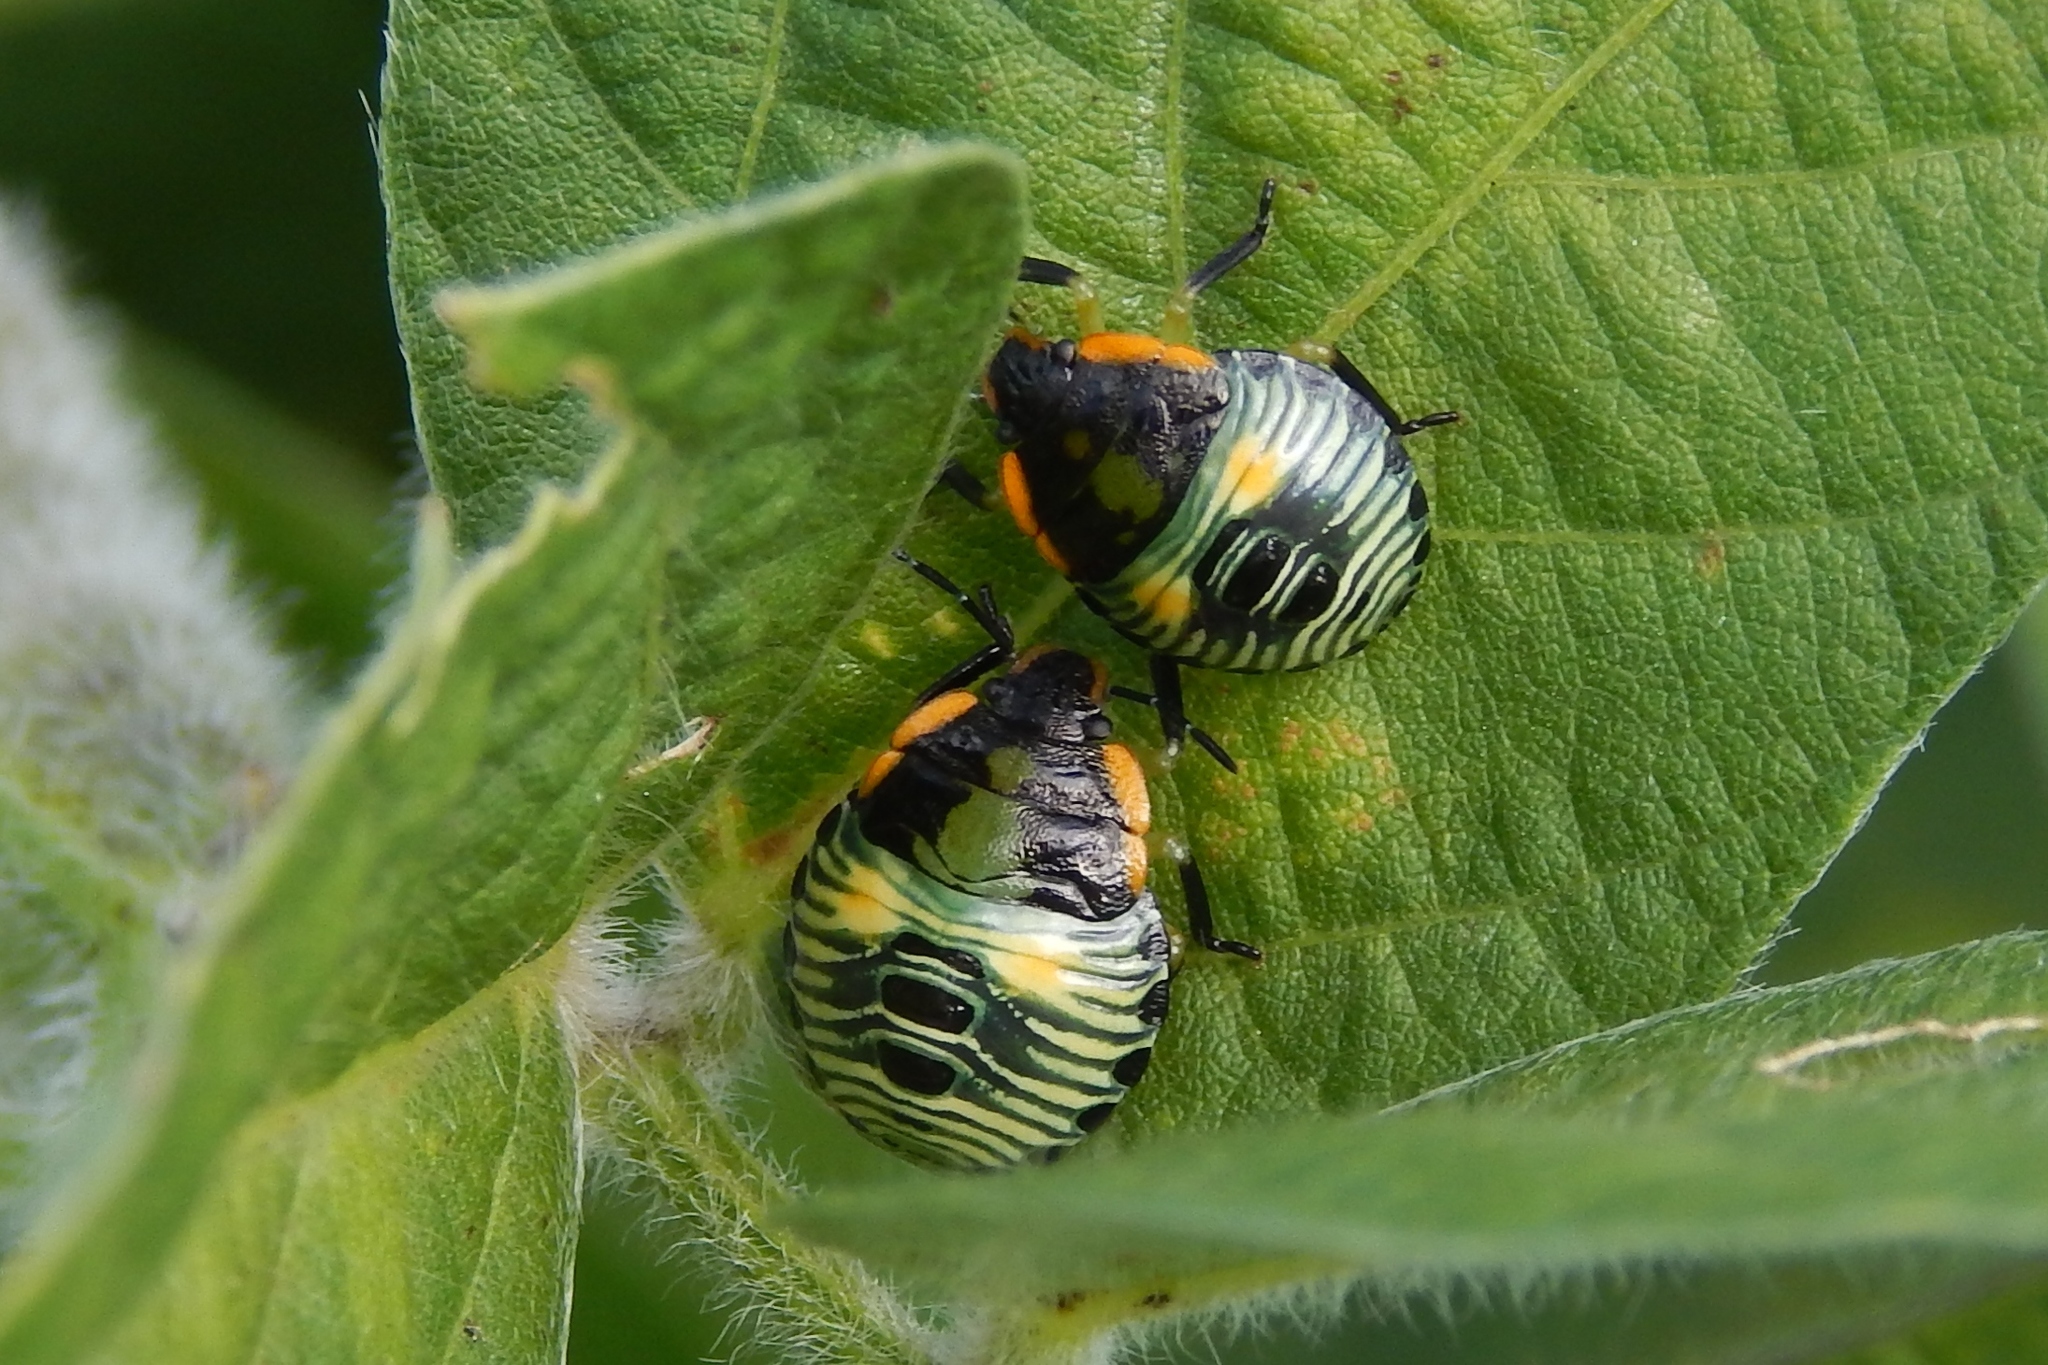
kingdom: Animalia
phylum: Arthropoda
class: Insecta
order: Hemiptera
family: Pentatomidae
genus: Chinavia
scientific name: Chinavia hilaris
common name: Green stink bug
